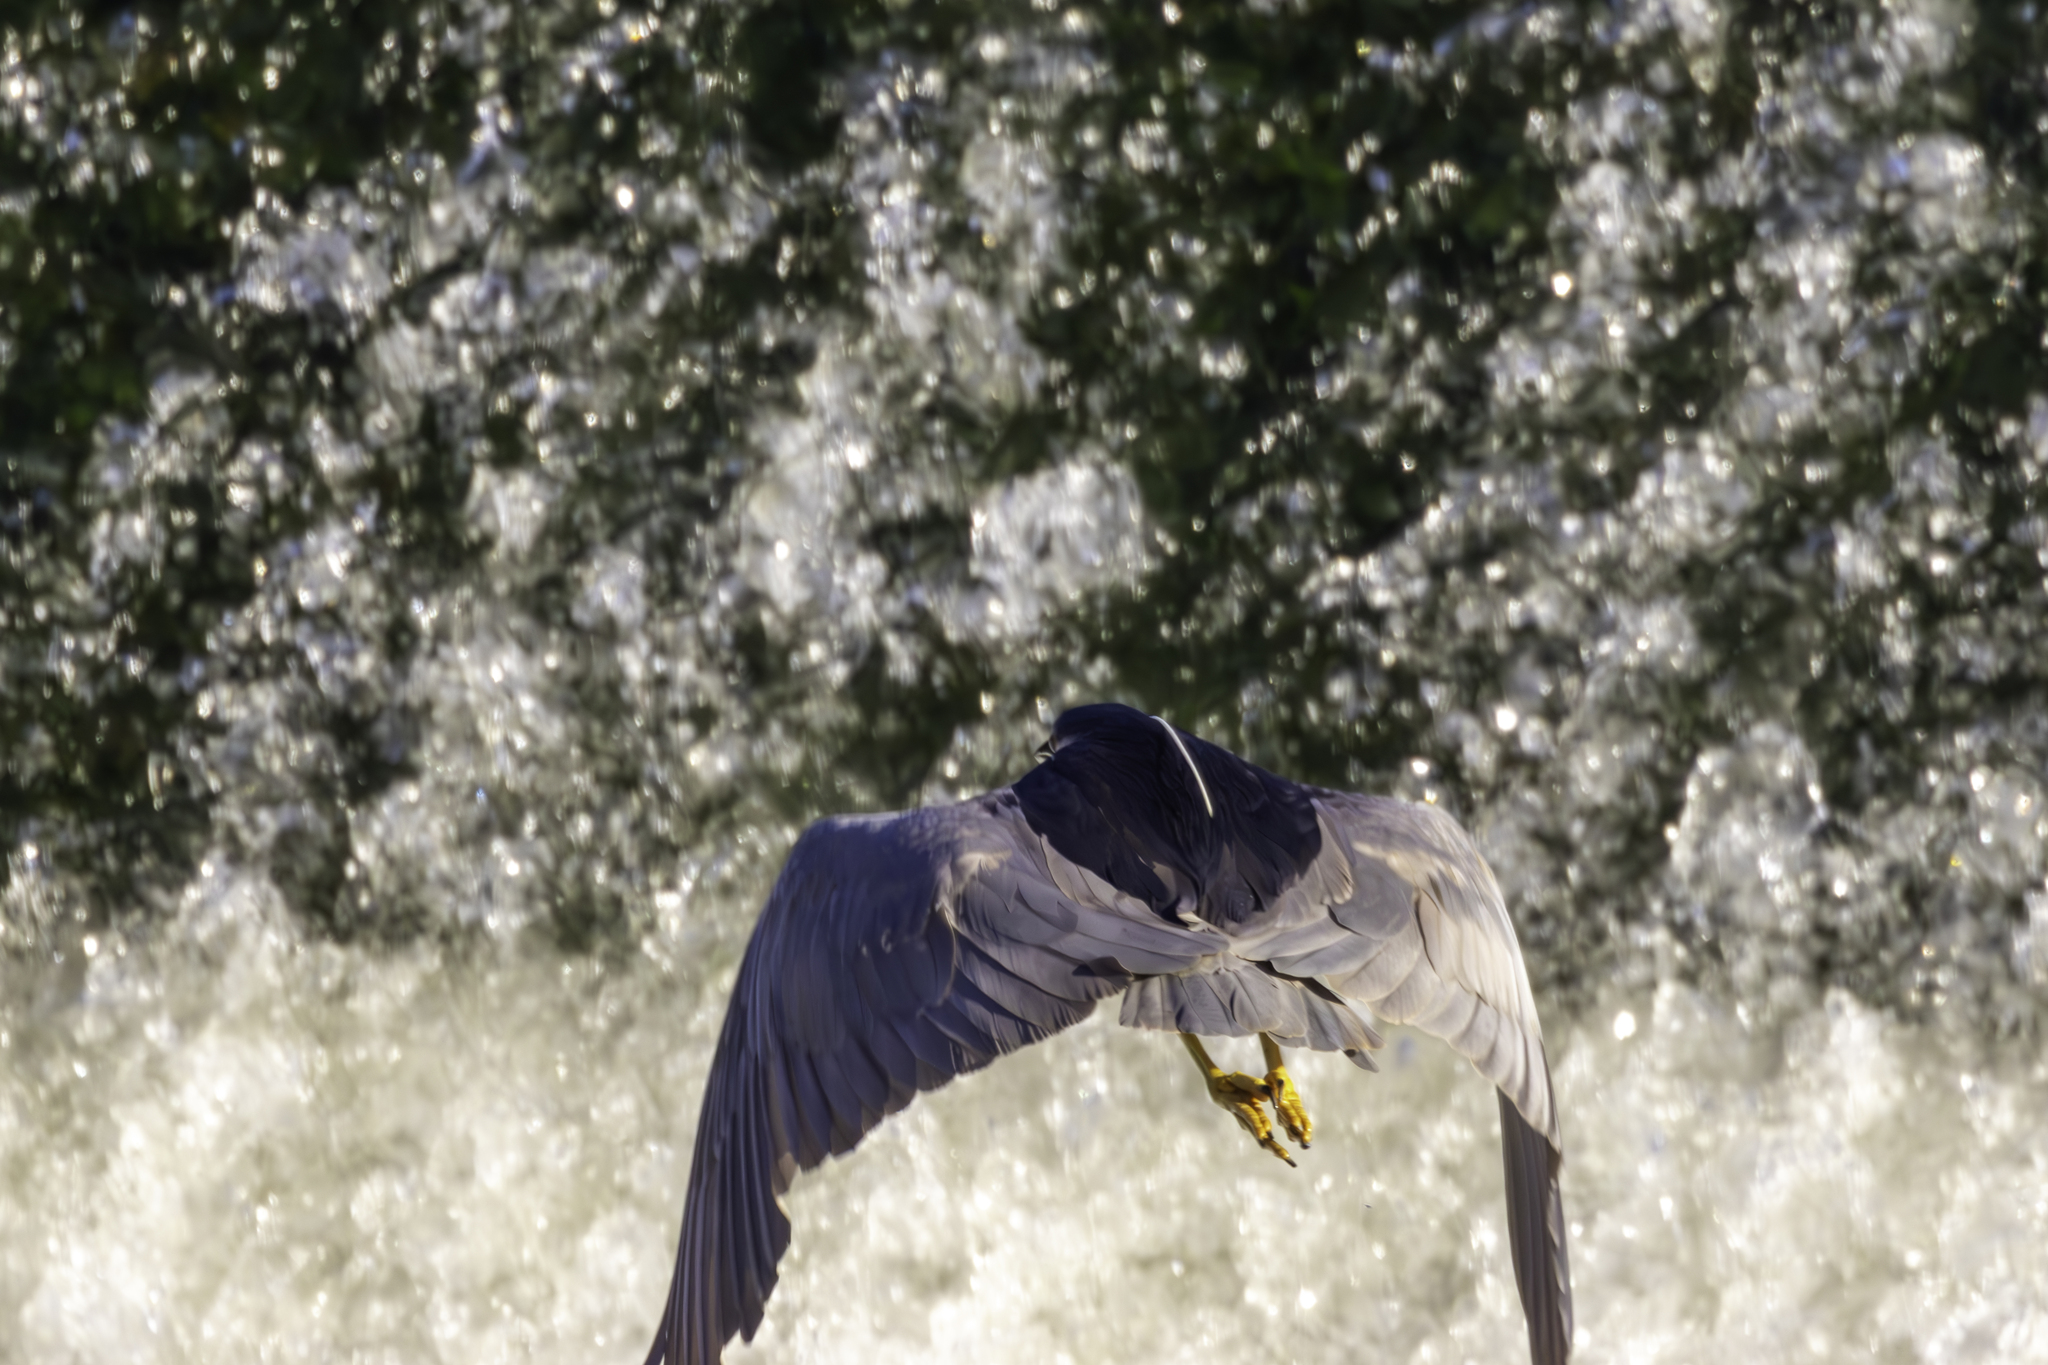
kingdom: Animalia
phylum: Chordata
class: Aves
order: Pelecaniformes
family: Ardeidae
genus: Nycticorax
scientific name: Nycticorax nycticorax
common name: Black-crowned night heron
